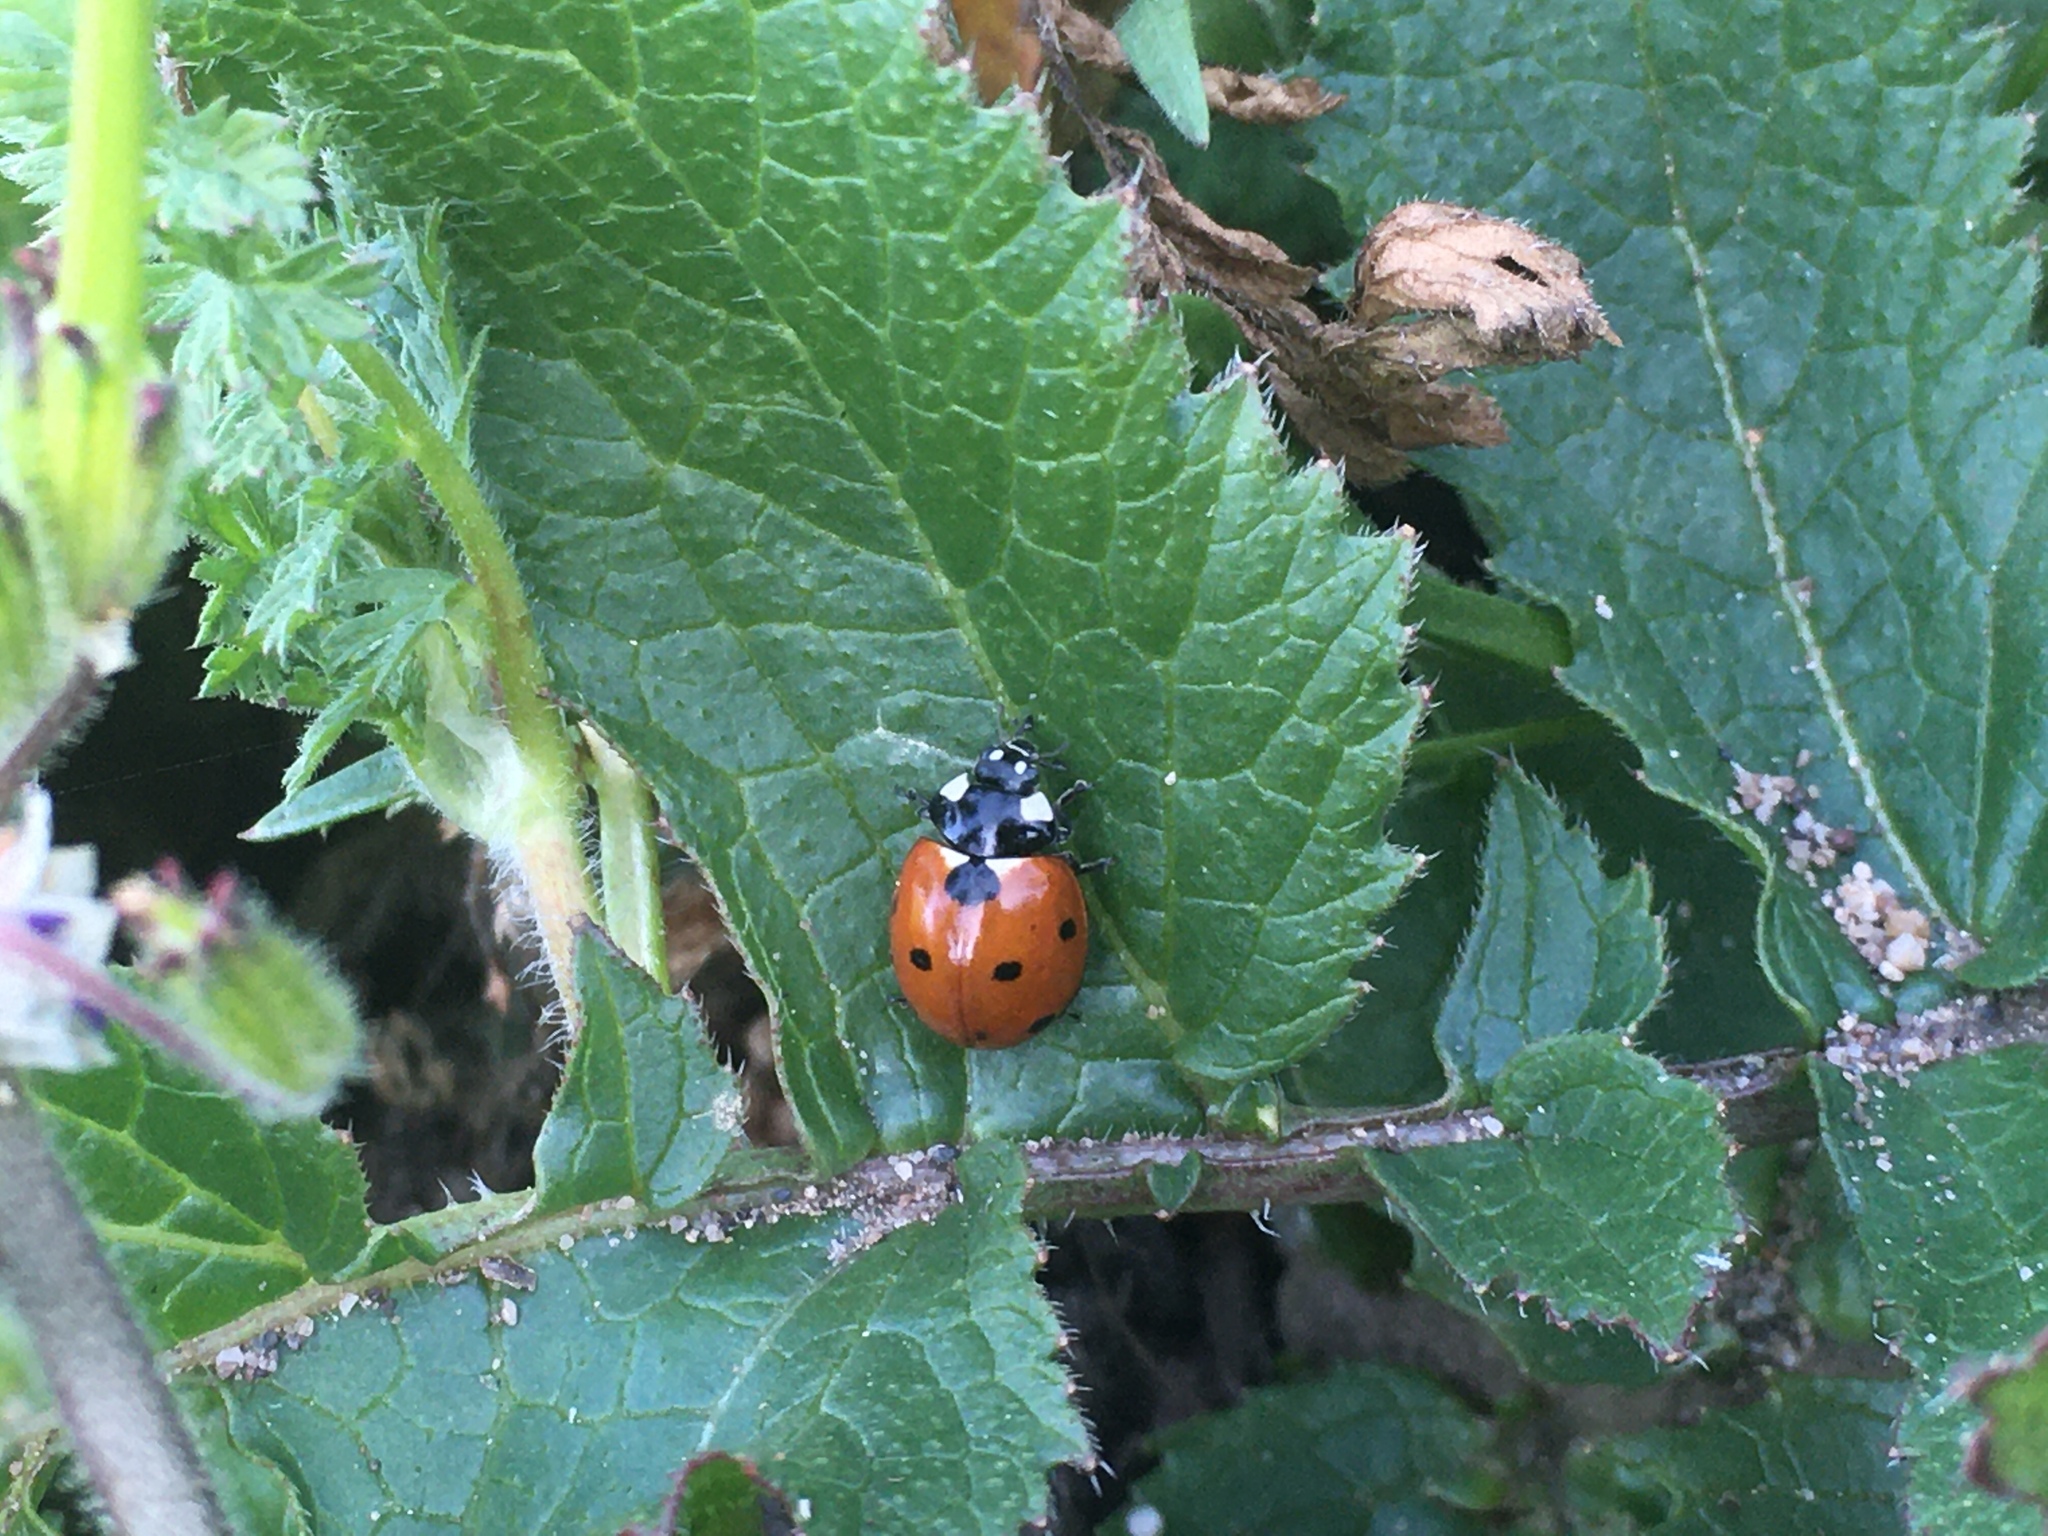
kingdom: Animalia
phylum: Arthropoda
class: Insecta
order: Coleoptera
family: Coccinellidae
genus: Coccinella
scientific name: Coccinella septempunctata
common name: Sevenspotted lady beetle
